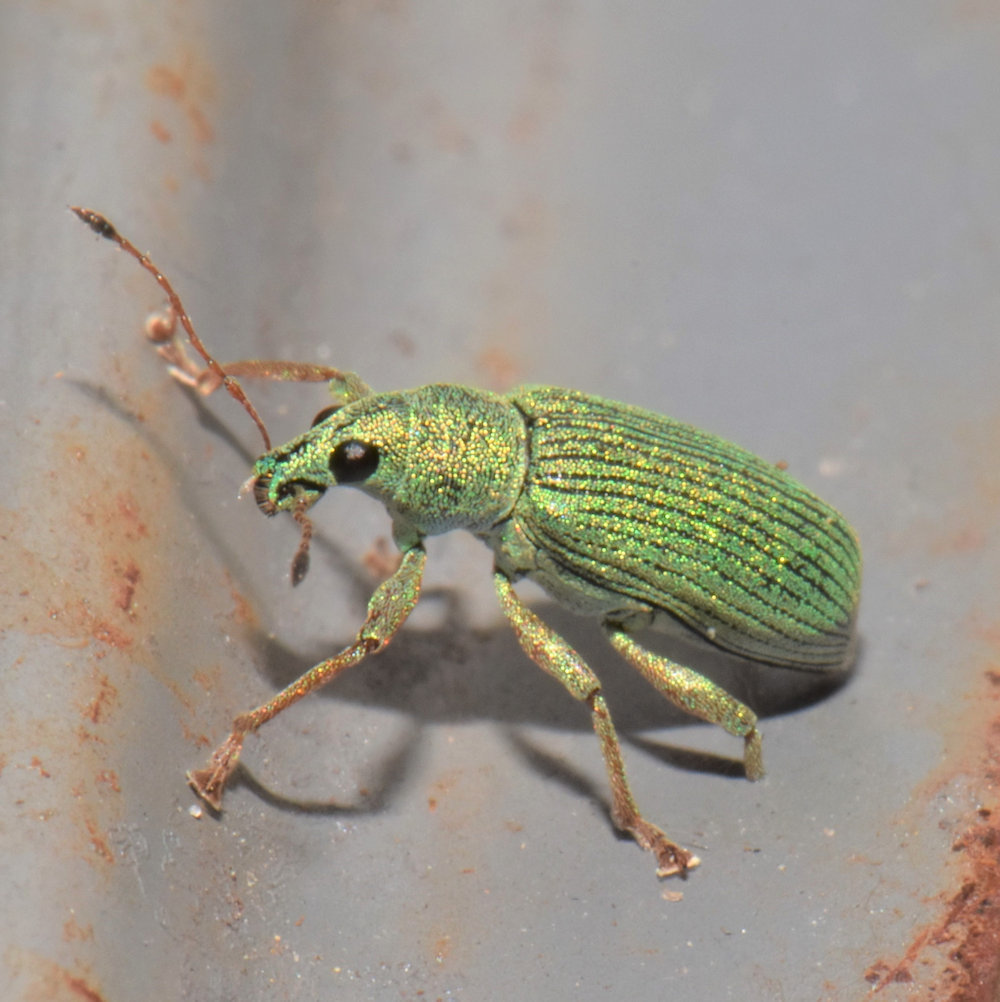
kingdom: Animalia
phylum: Arthropoda
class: Insecta
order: Coleoptera
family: Curculionidae
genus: Polydrusus
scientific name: Polydrusus formosus
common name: Weevil
